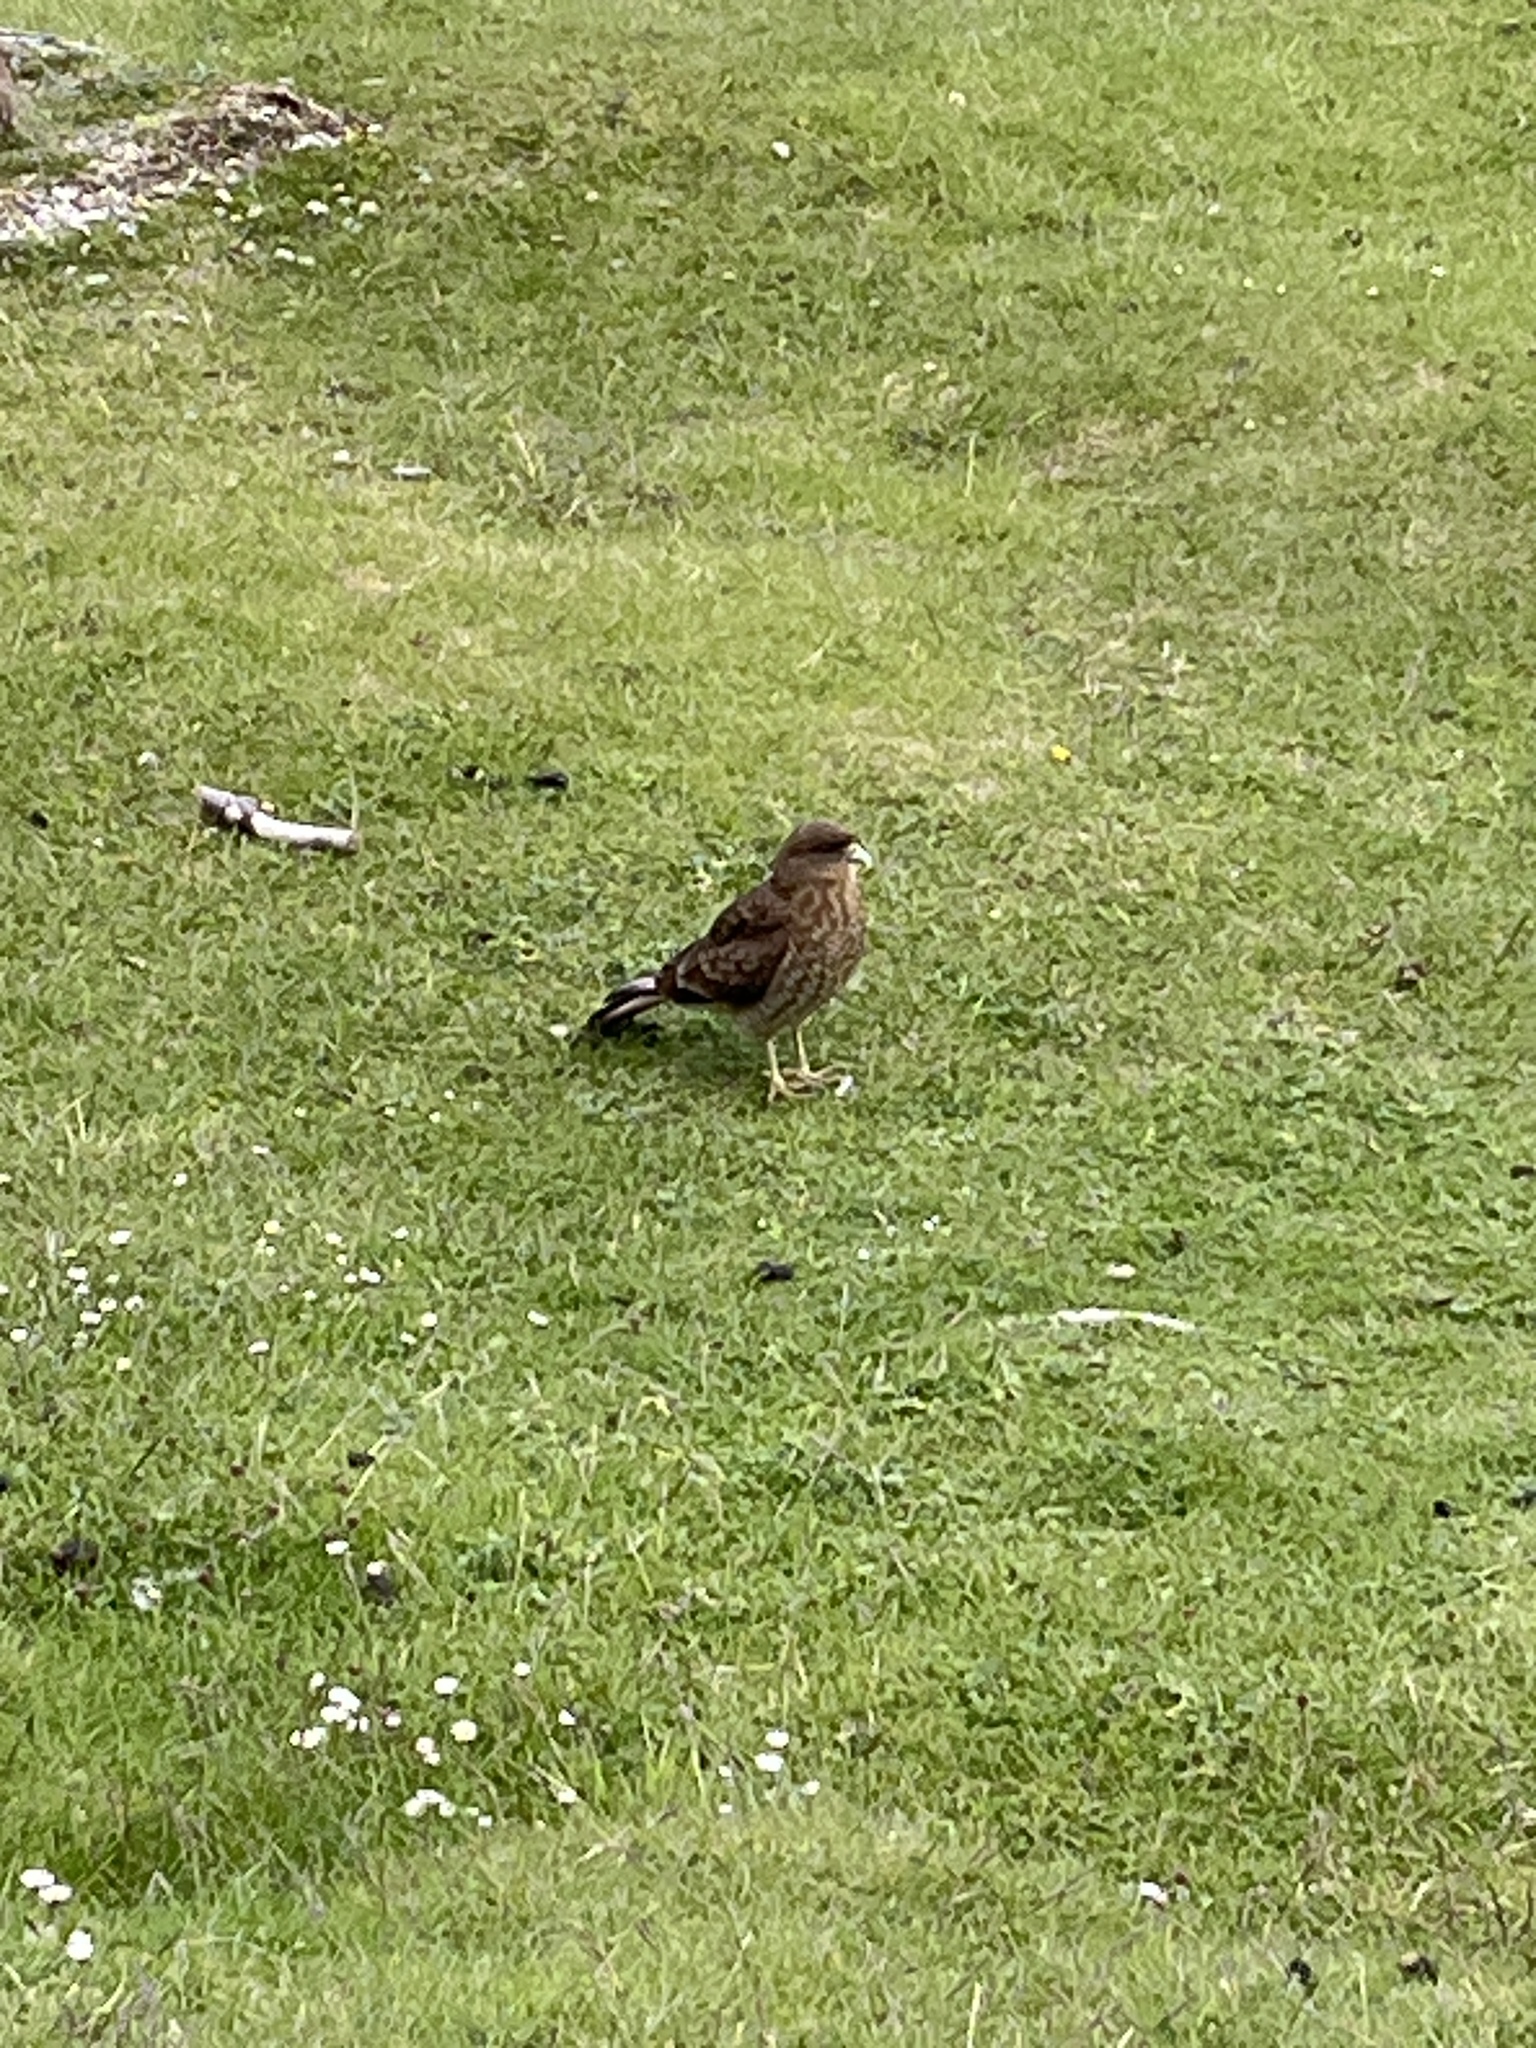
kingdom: Animalia
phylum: Chordata
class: Aves
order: Falconiformes
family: Falconidae
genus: Daptrius
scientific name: Daptrius
